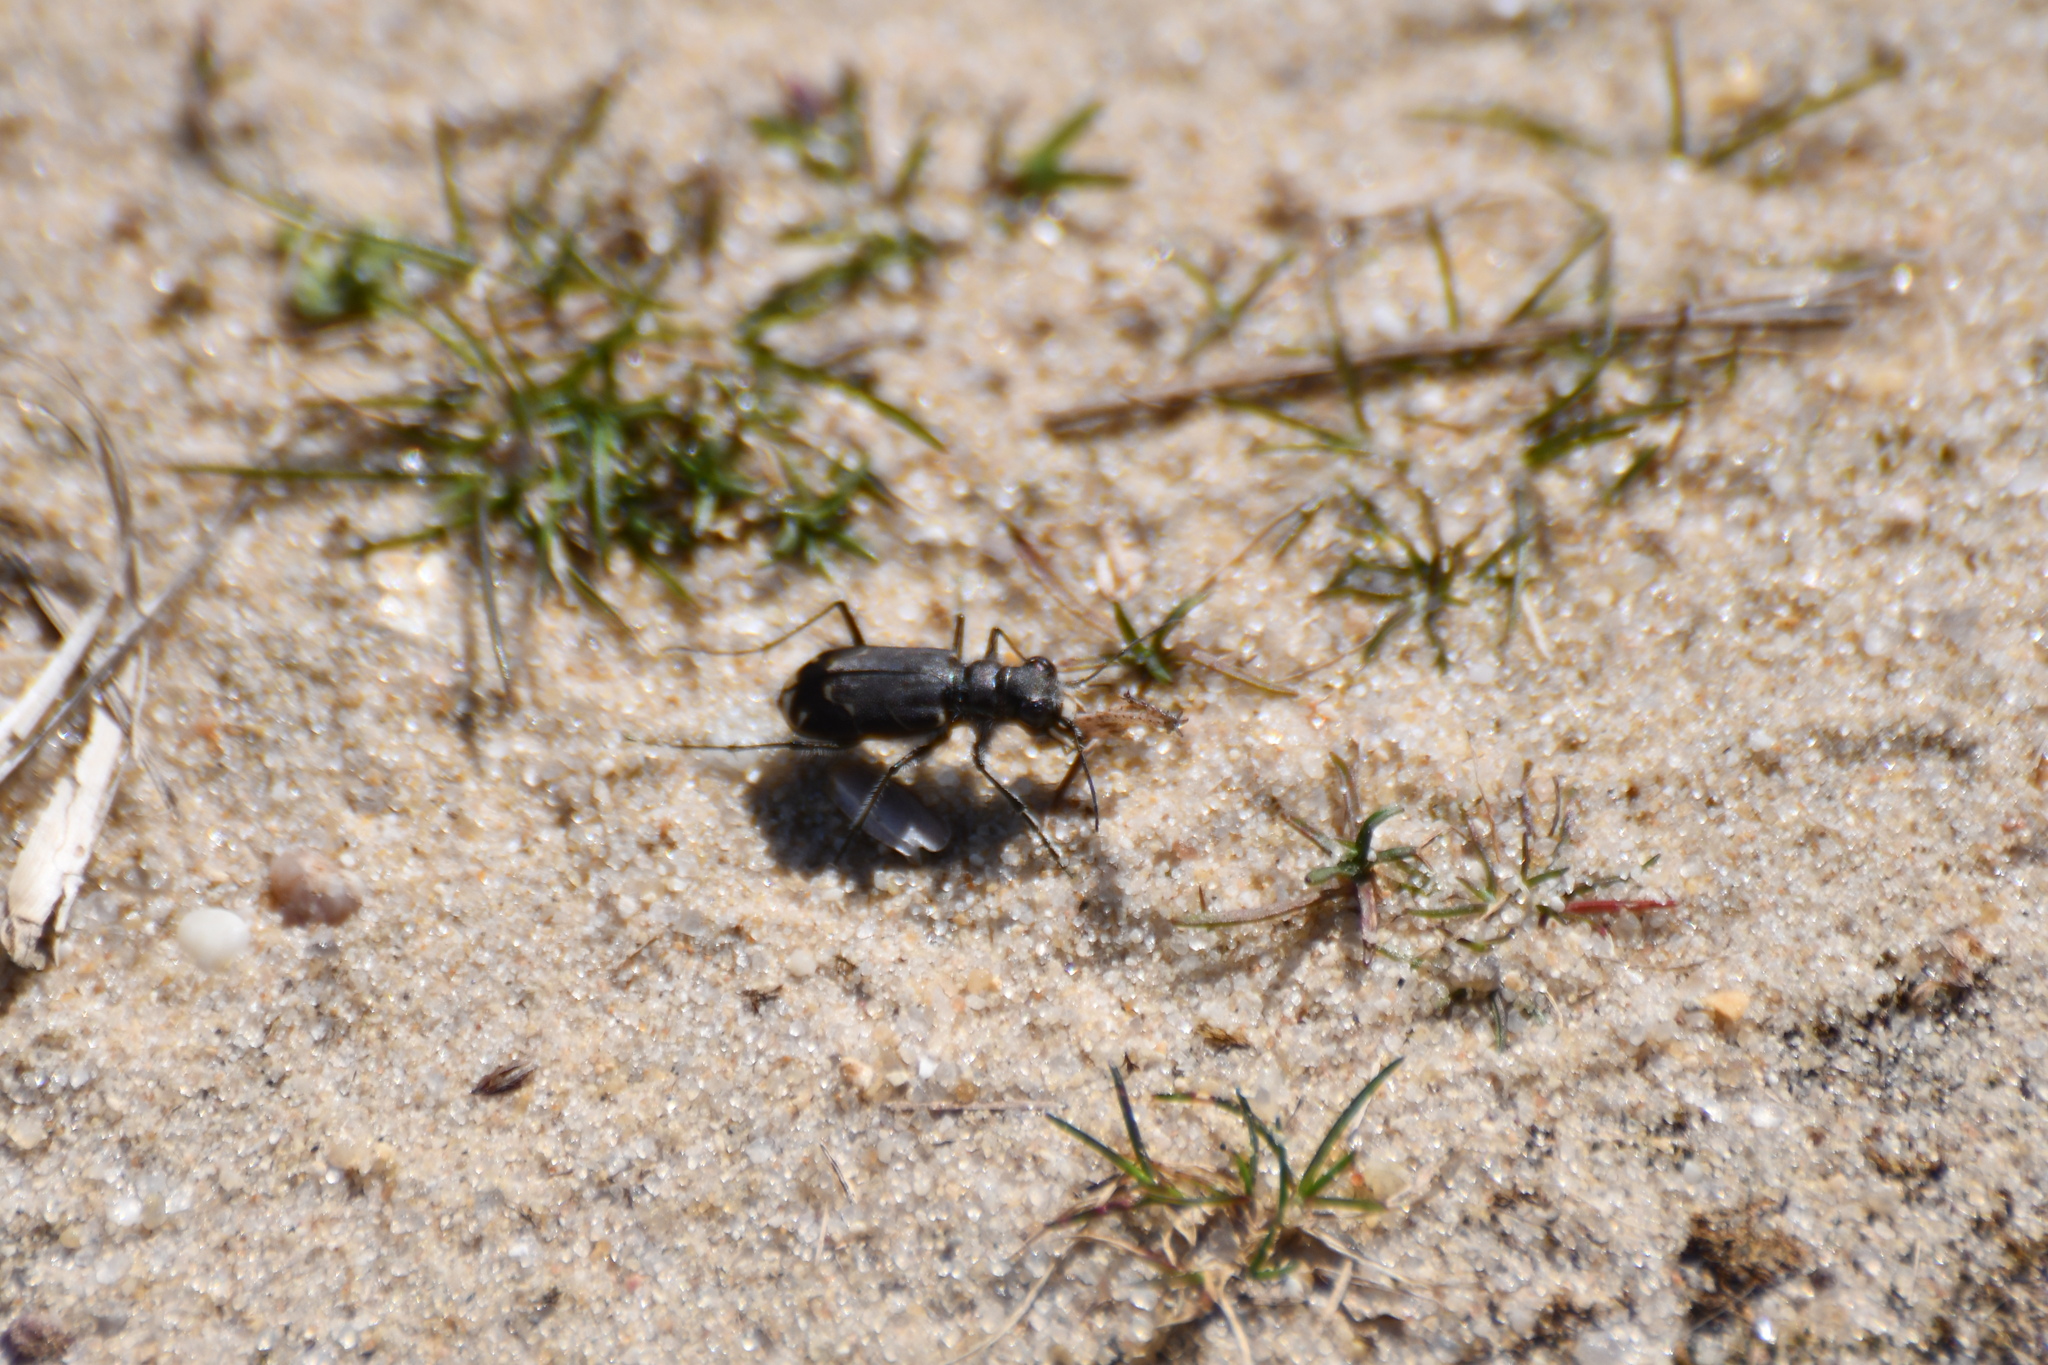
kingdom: Animalia
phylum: Arthropoda
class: Insecta
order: Coleoptera
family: Carabidae
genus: Cicindela
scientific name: Cicindela tranquebarica
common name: Oblique-lined tiger beetle
